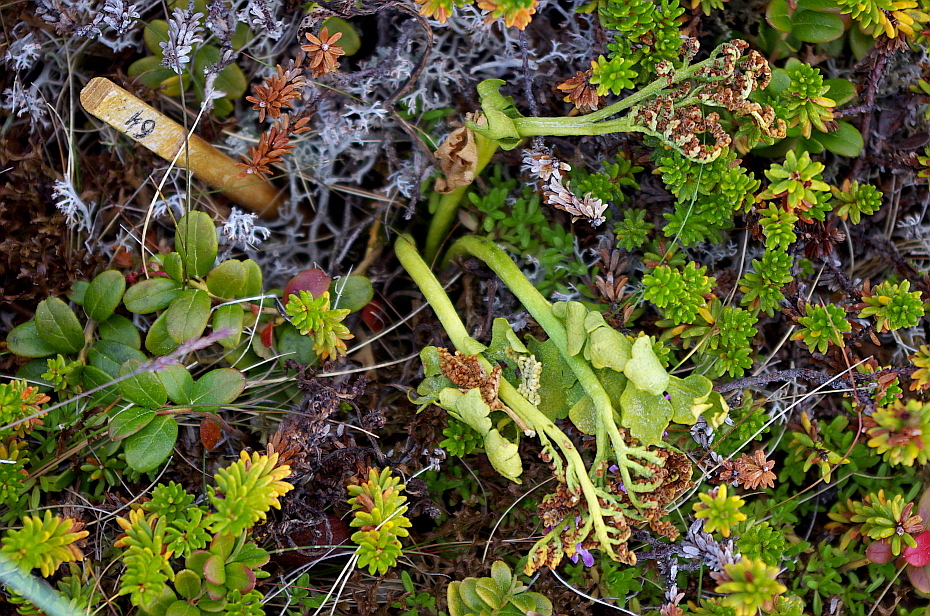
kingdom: Plantae
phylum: Tracheophyta
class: Polypodiopsida
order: Ophioglossales
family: Ophioglossaceae
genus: Botrychium
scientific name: Botrychium boreale
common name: Boreal moonwort
